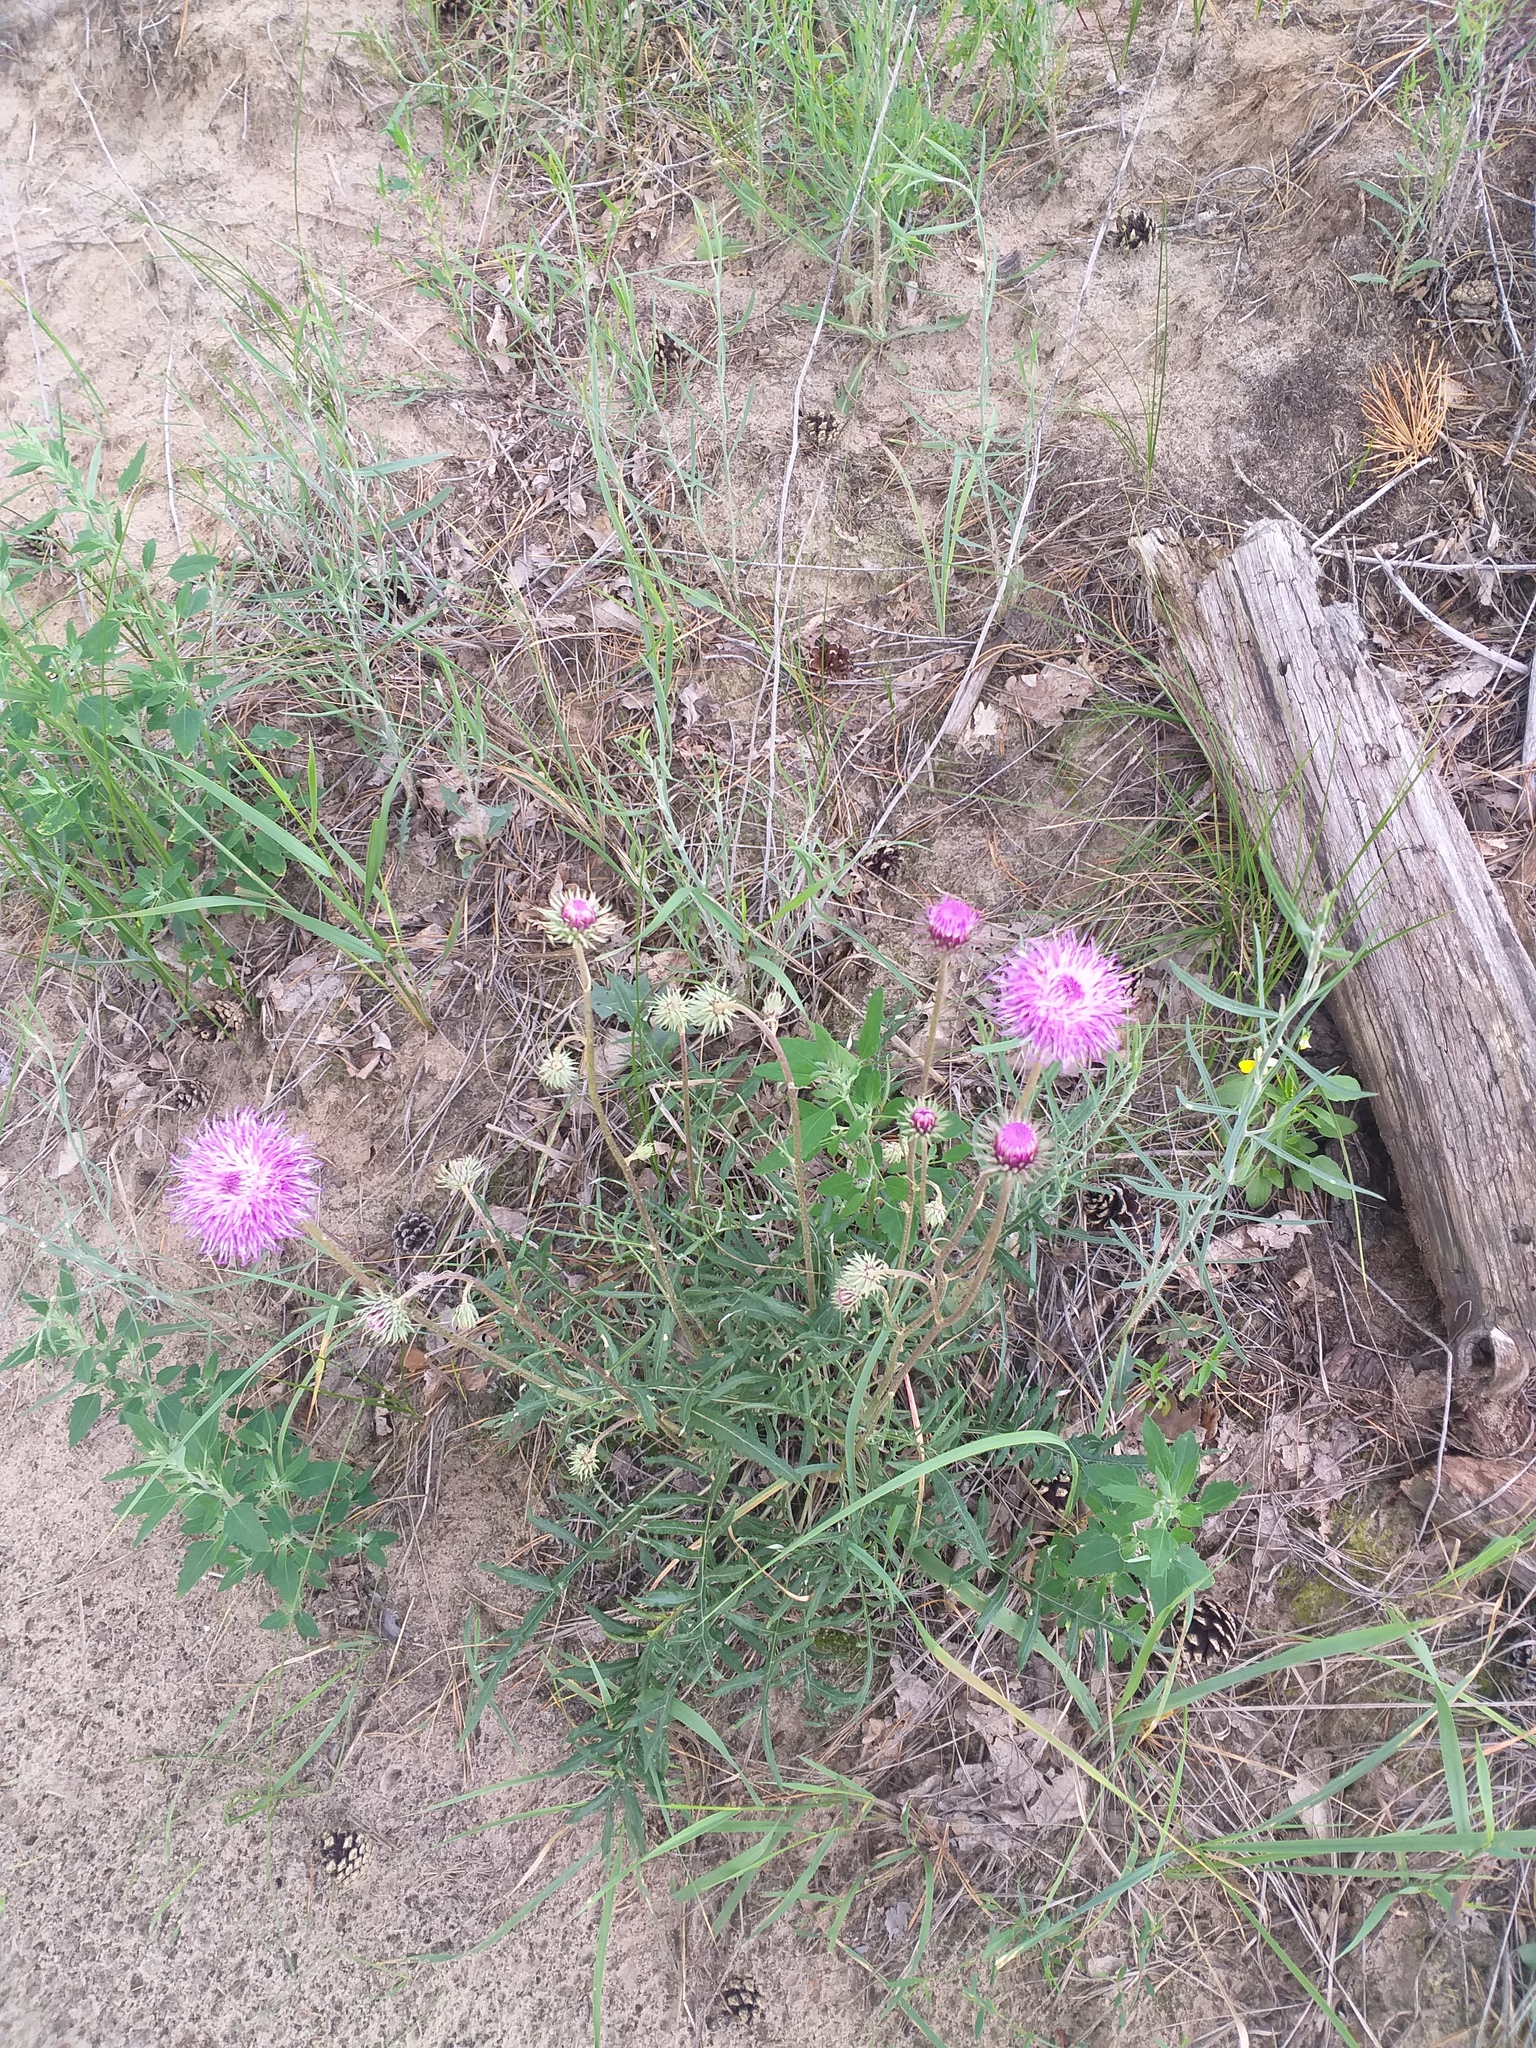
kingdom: Plantae
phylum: Tracheophyta
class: Magnoliopsida
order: Asterales
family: Asteraceae
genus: Jurinea
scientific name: Jurinea cyanoides
